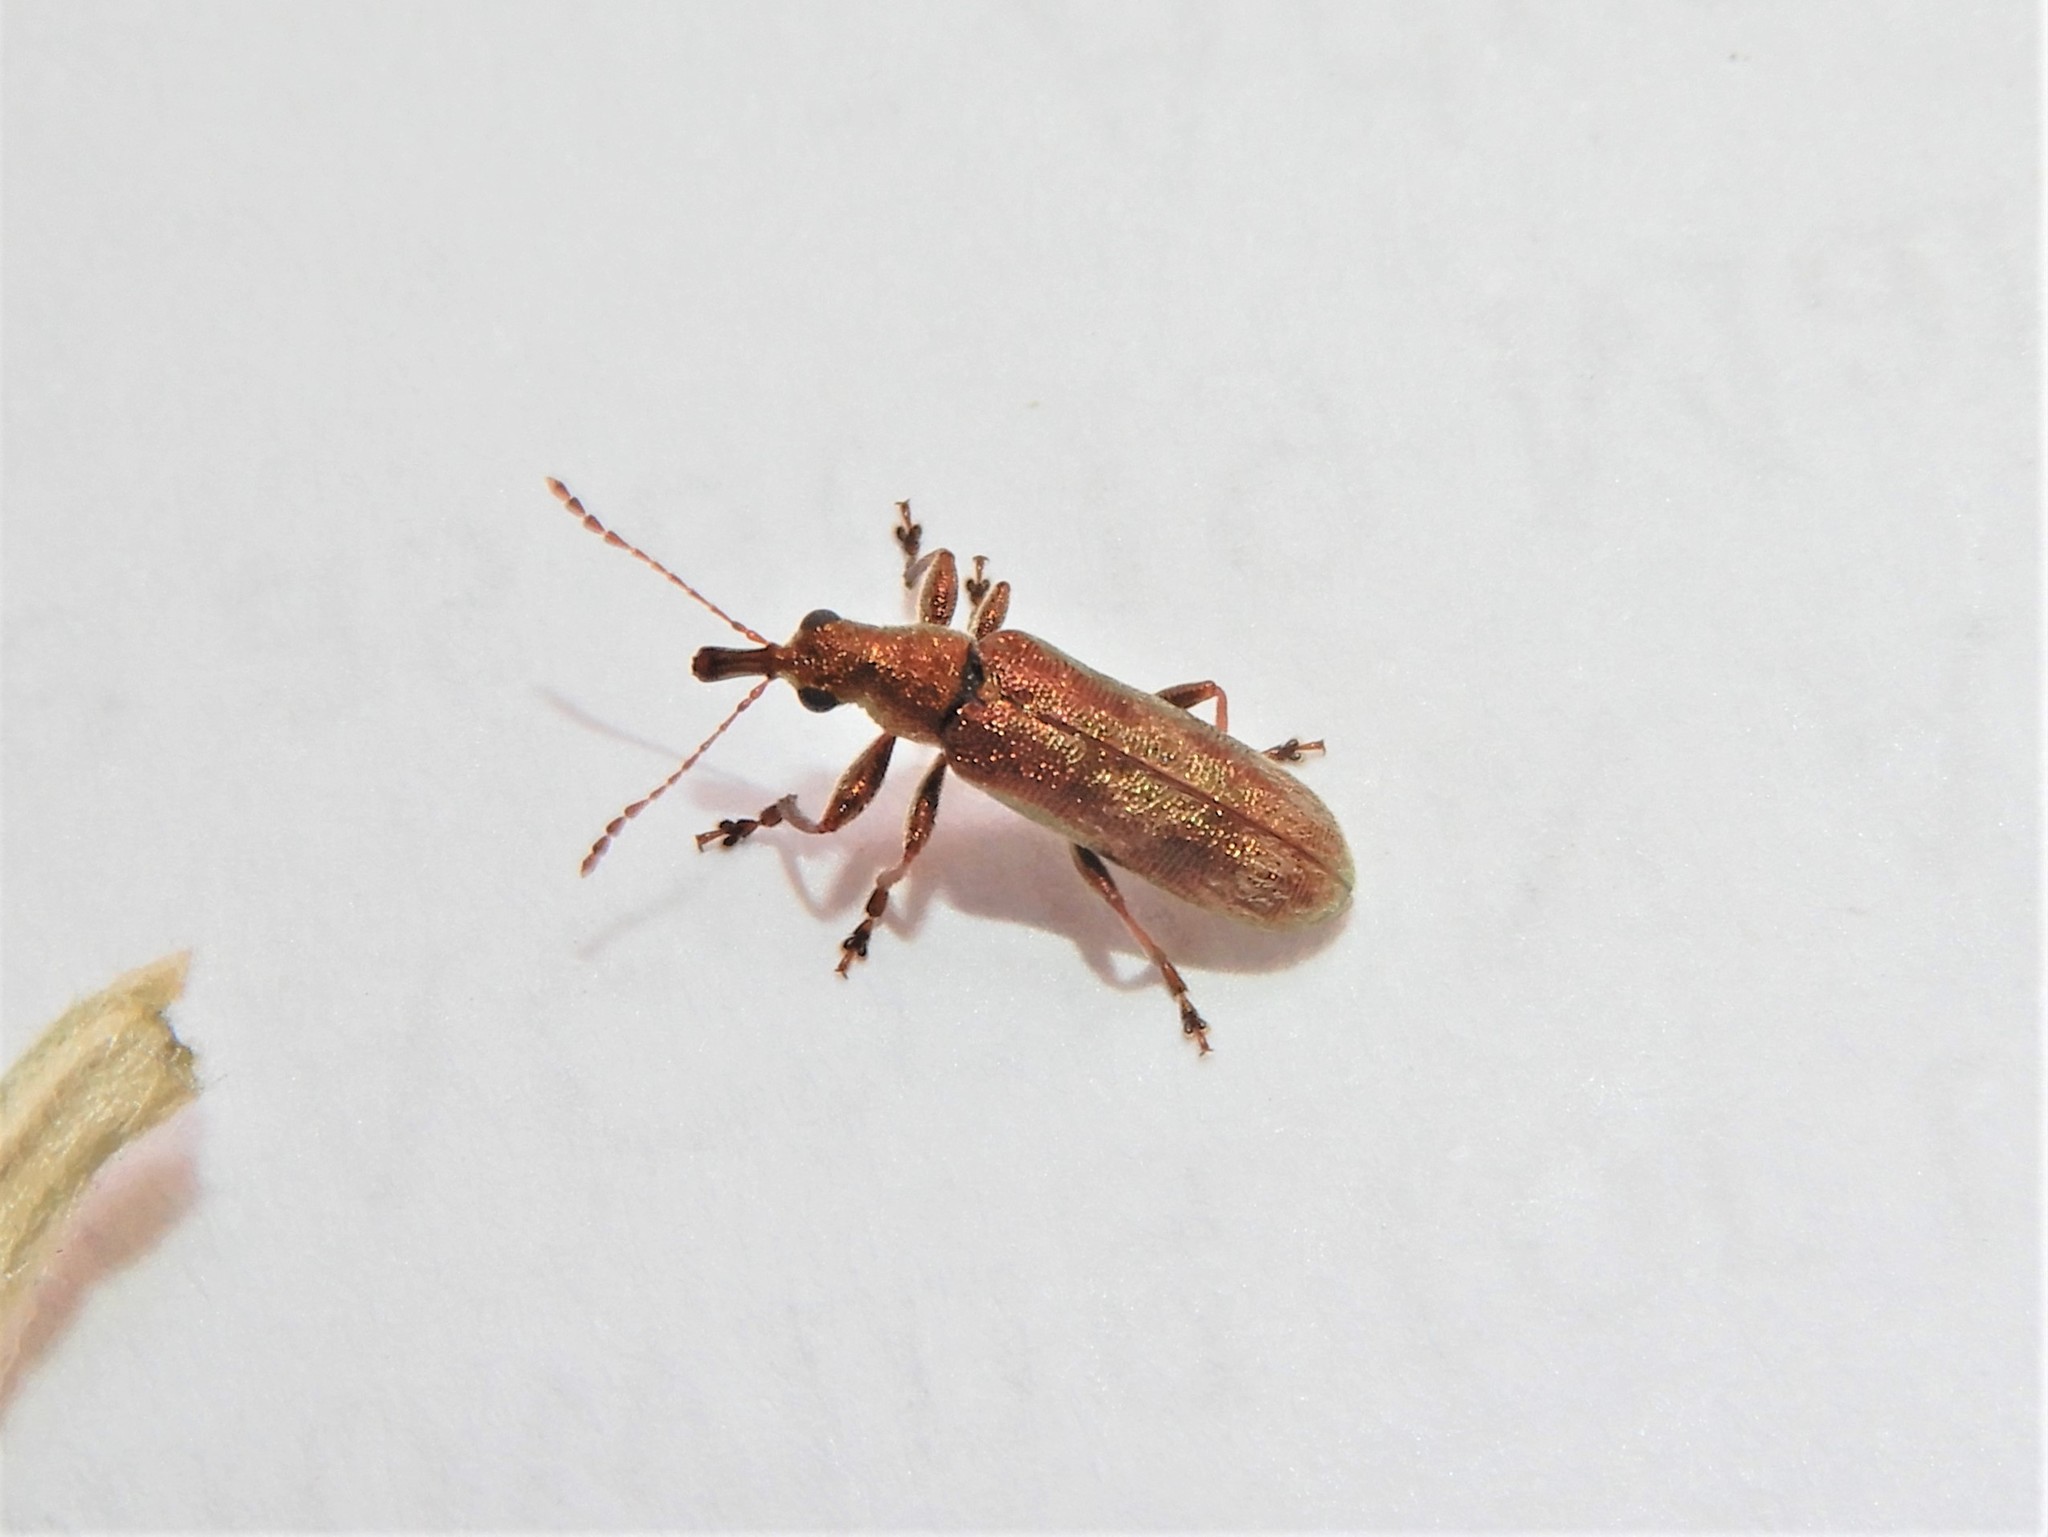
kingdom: Animalia
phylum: Arthropoda
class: Insecta
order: Coleoptera
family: Belidae
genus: Rhicnobelus
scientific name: Rhicnobelus
